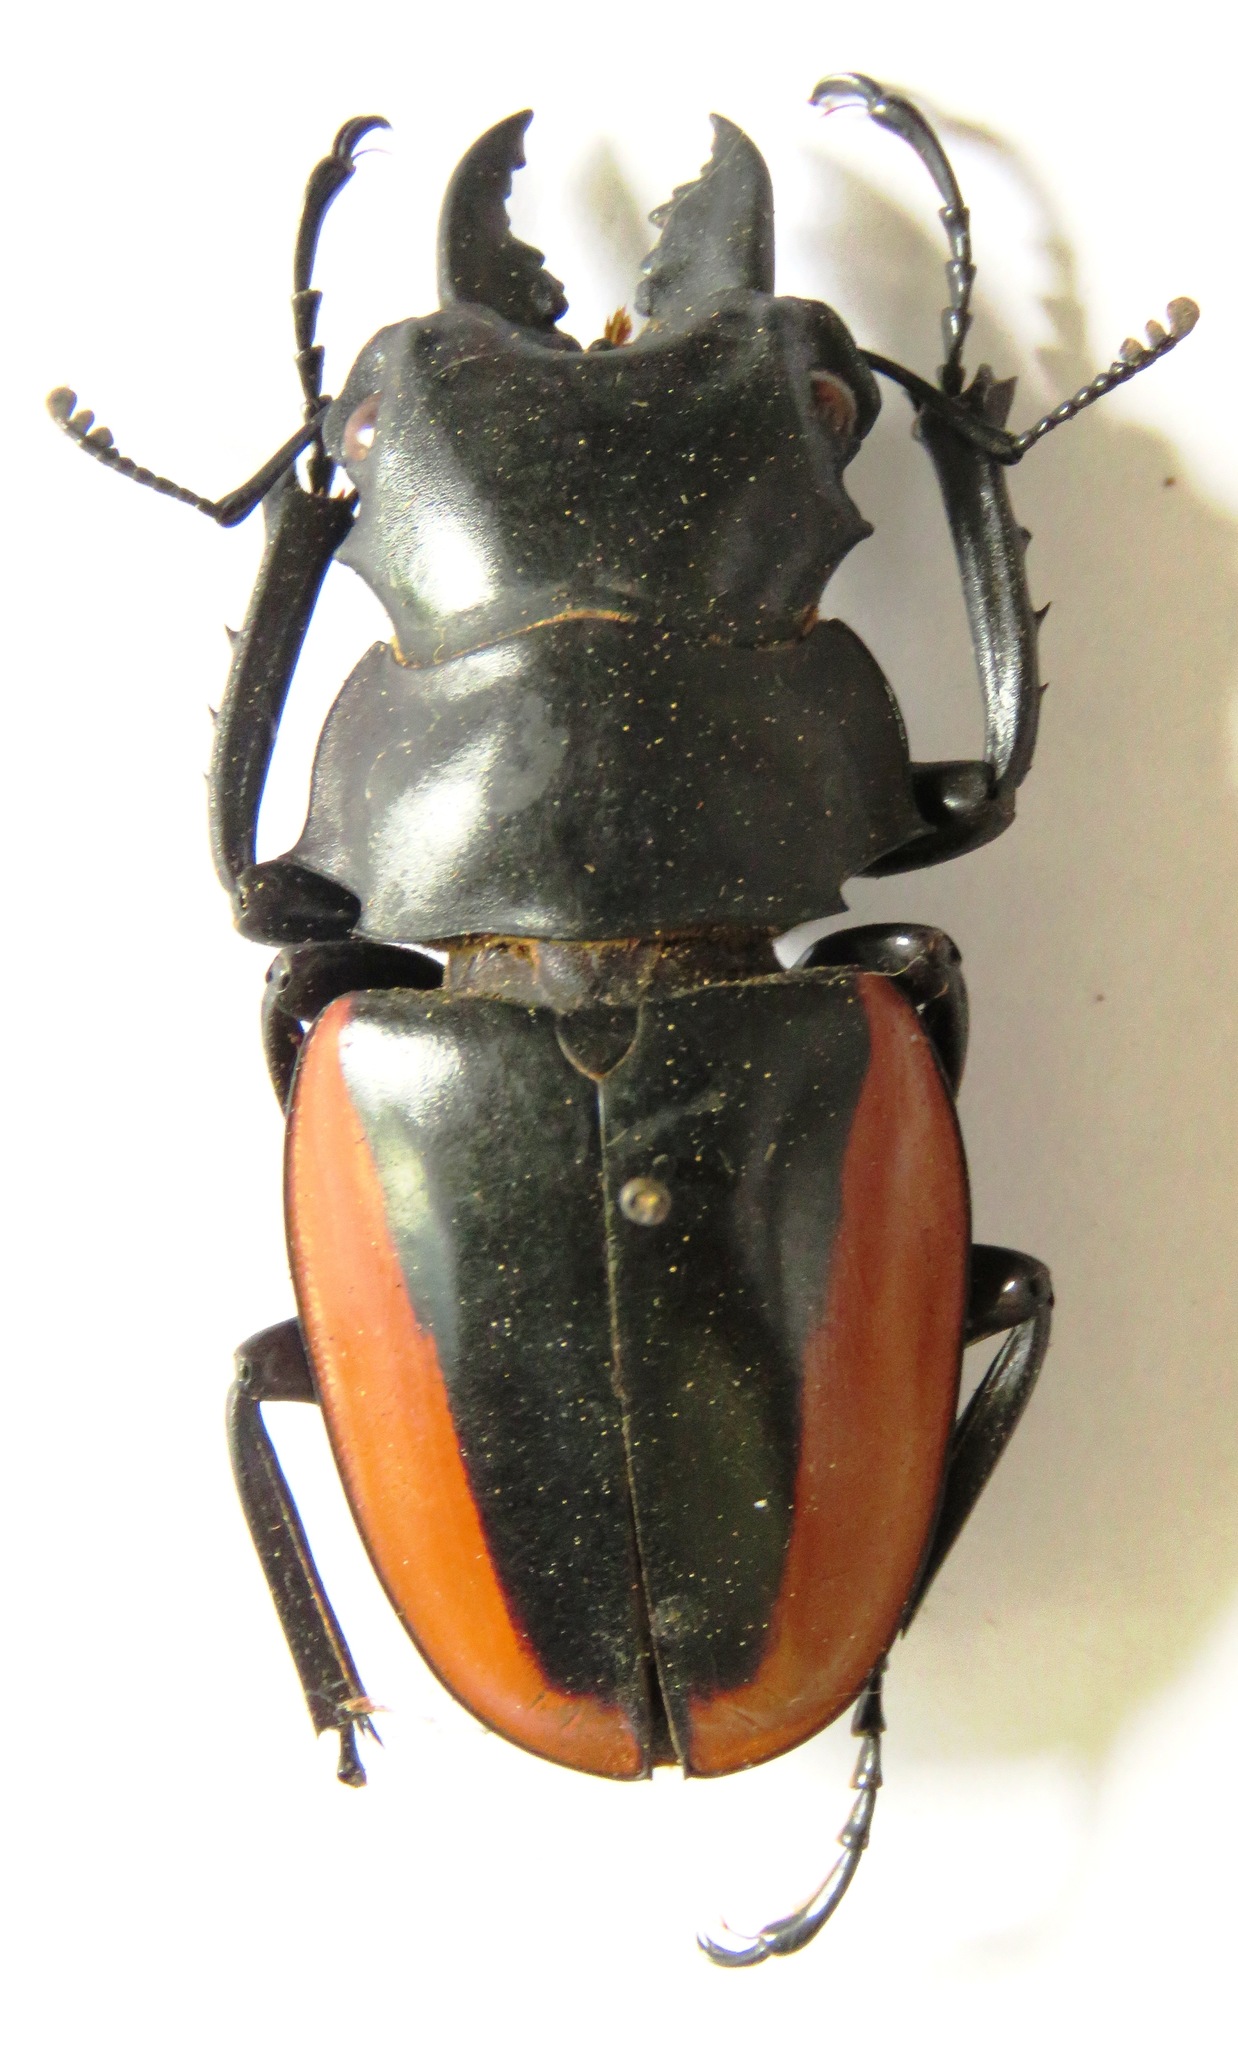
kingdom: Animalia
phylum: Arthropoda
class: Insecta
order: Coleoptera
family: Lucanidae
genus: Odontolabis
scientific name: Odontolabis cuvera
